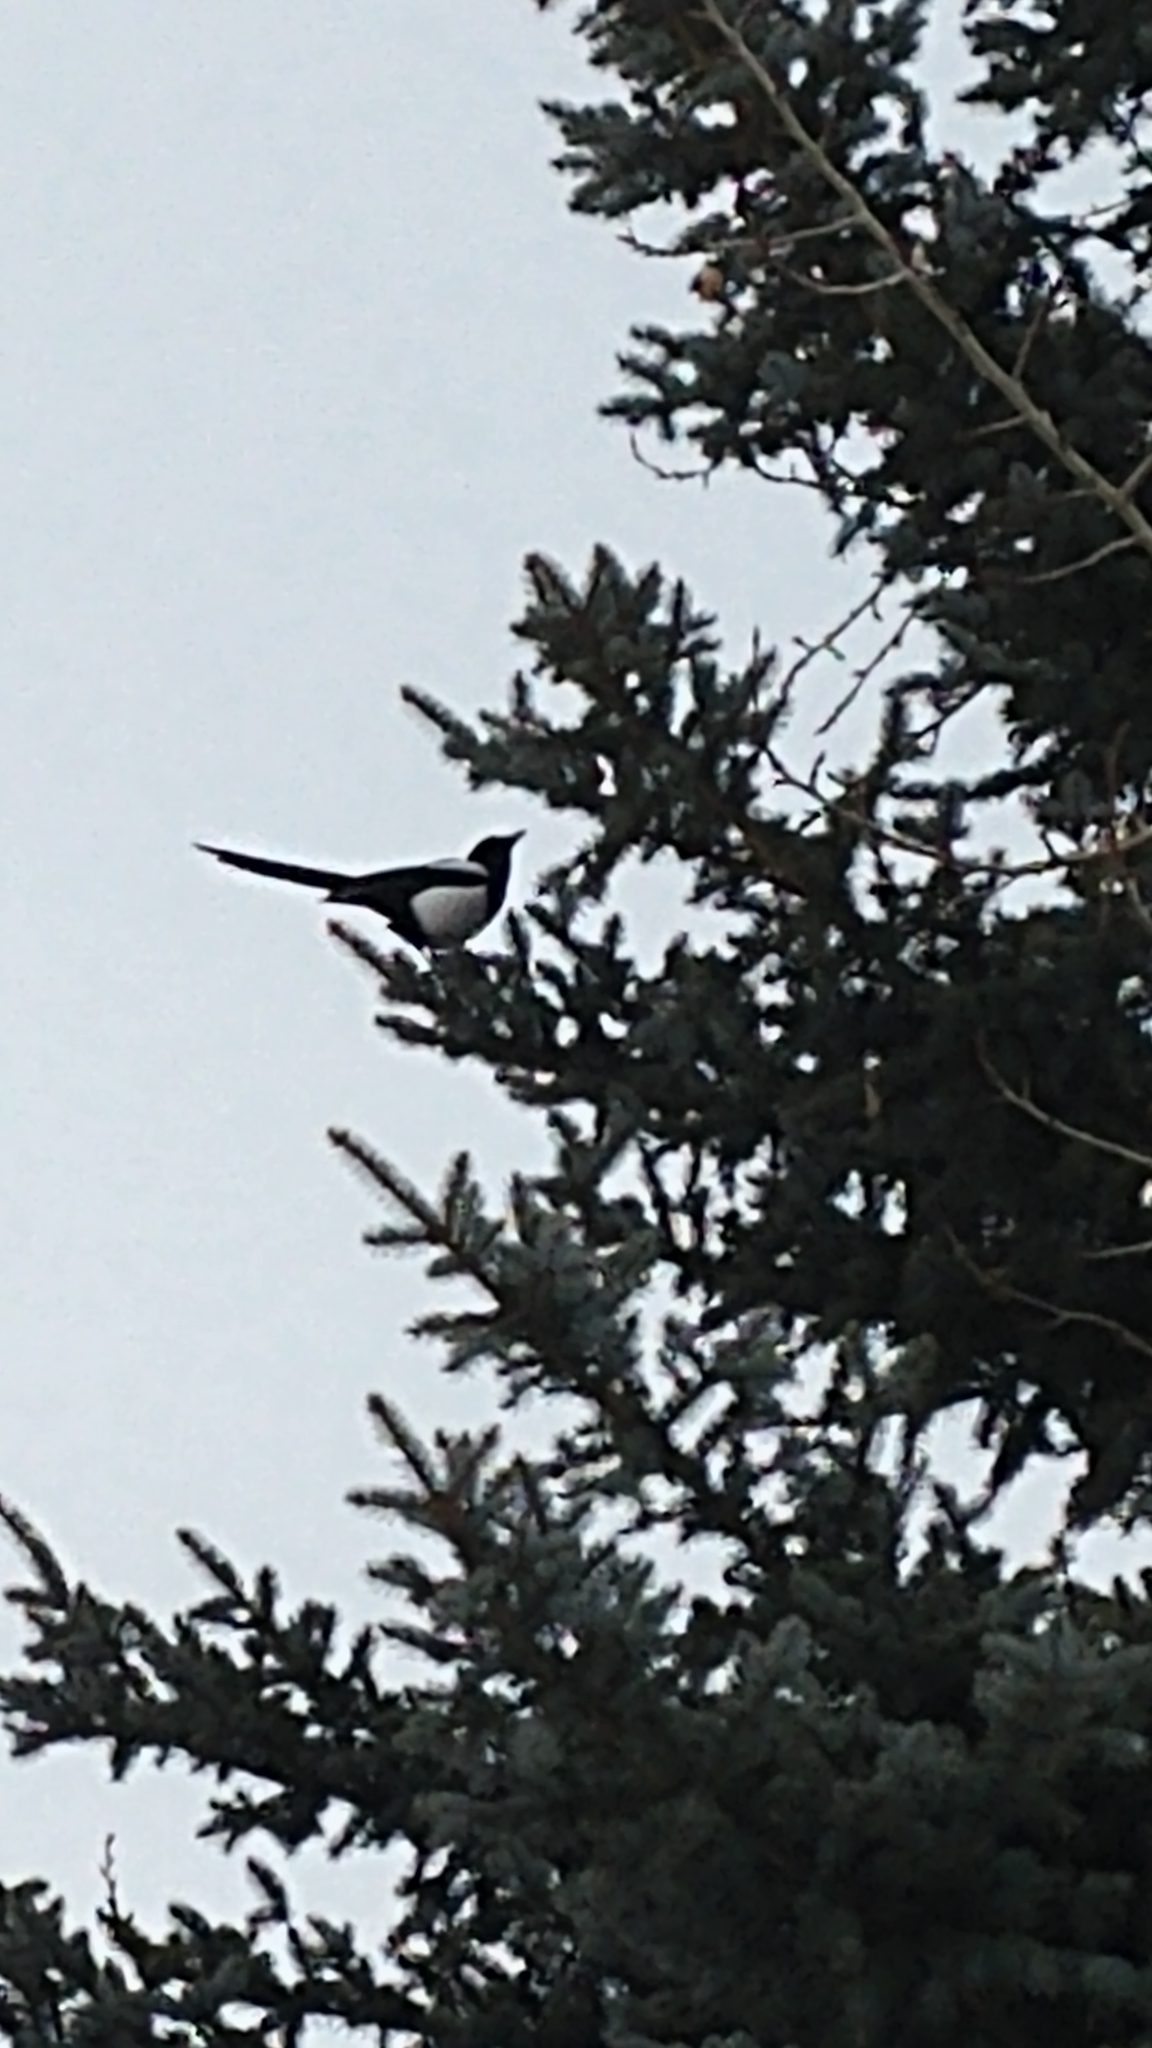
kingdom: Animalia
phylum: Chordata
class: Aves
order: Passeriformes
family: Corvidae
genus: Pica
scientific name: Pica hudsonia
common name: Black-billed magpie
